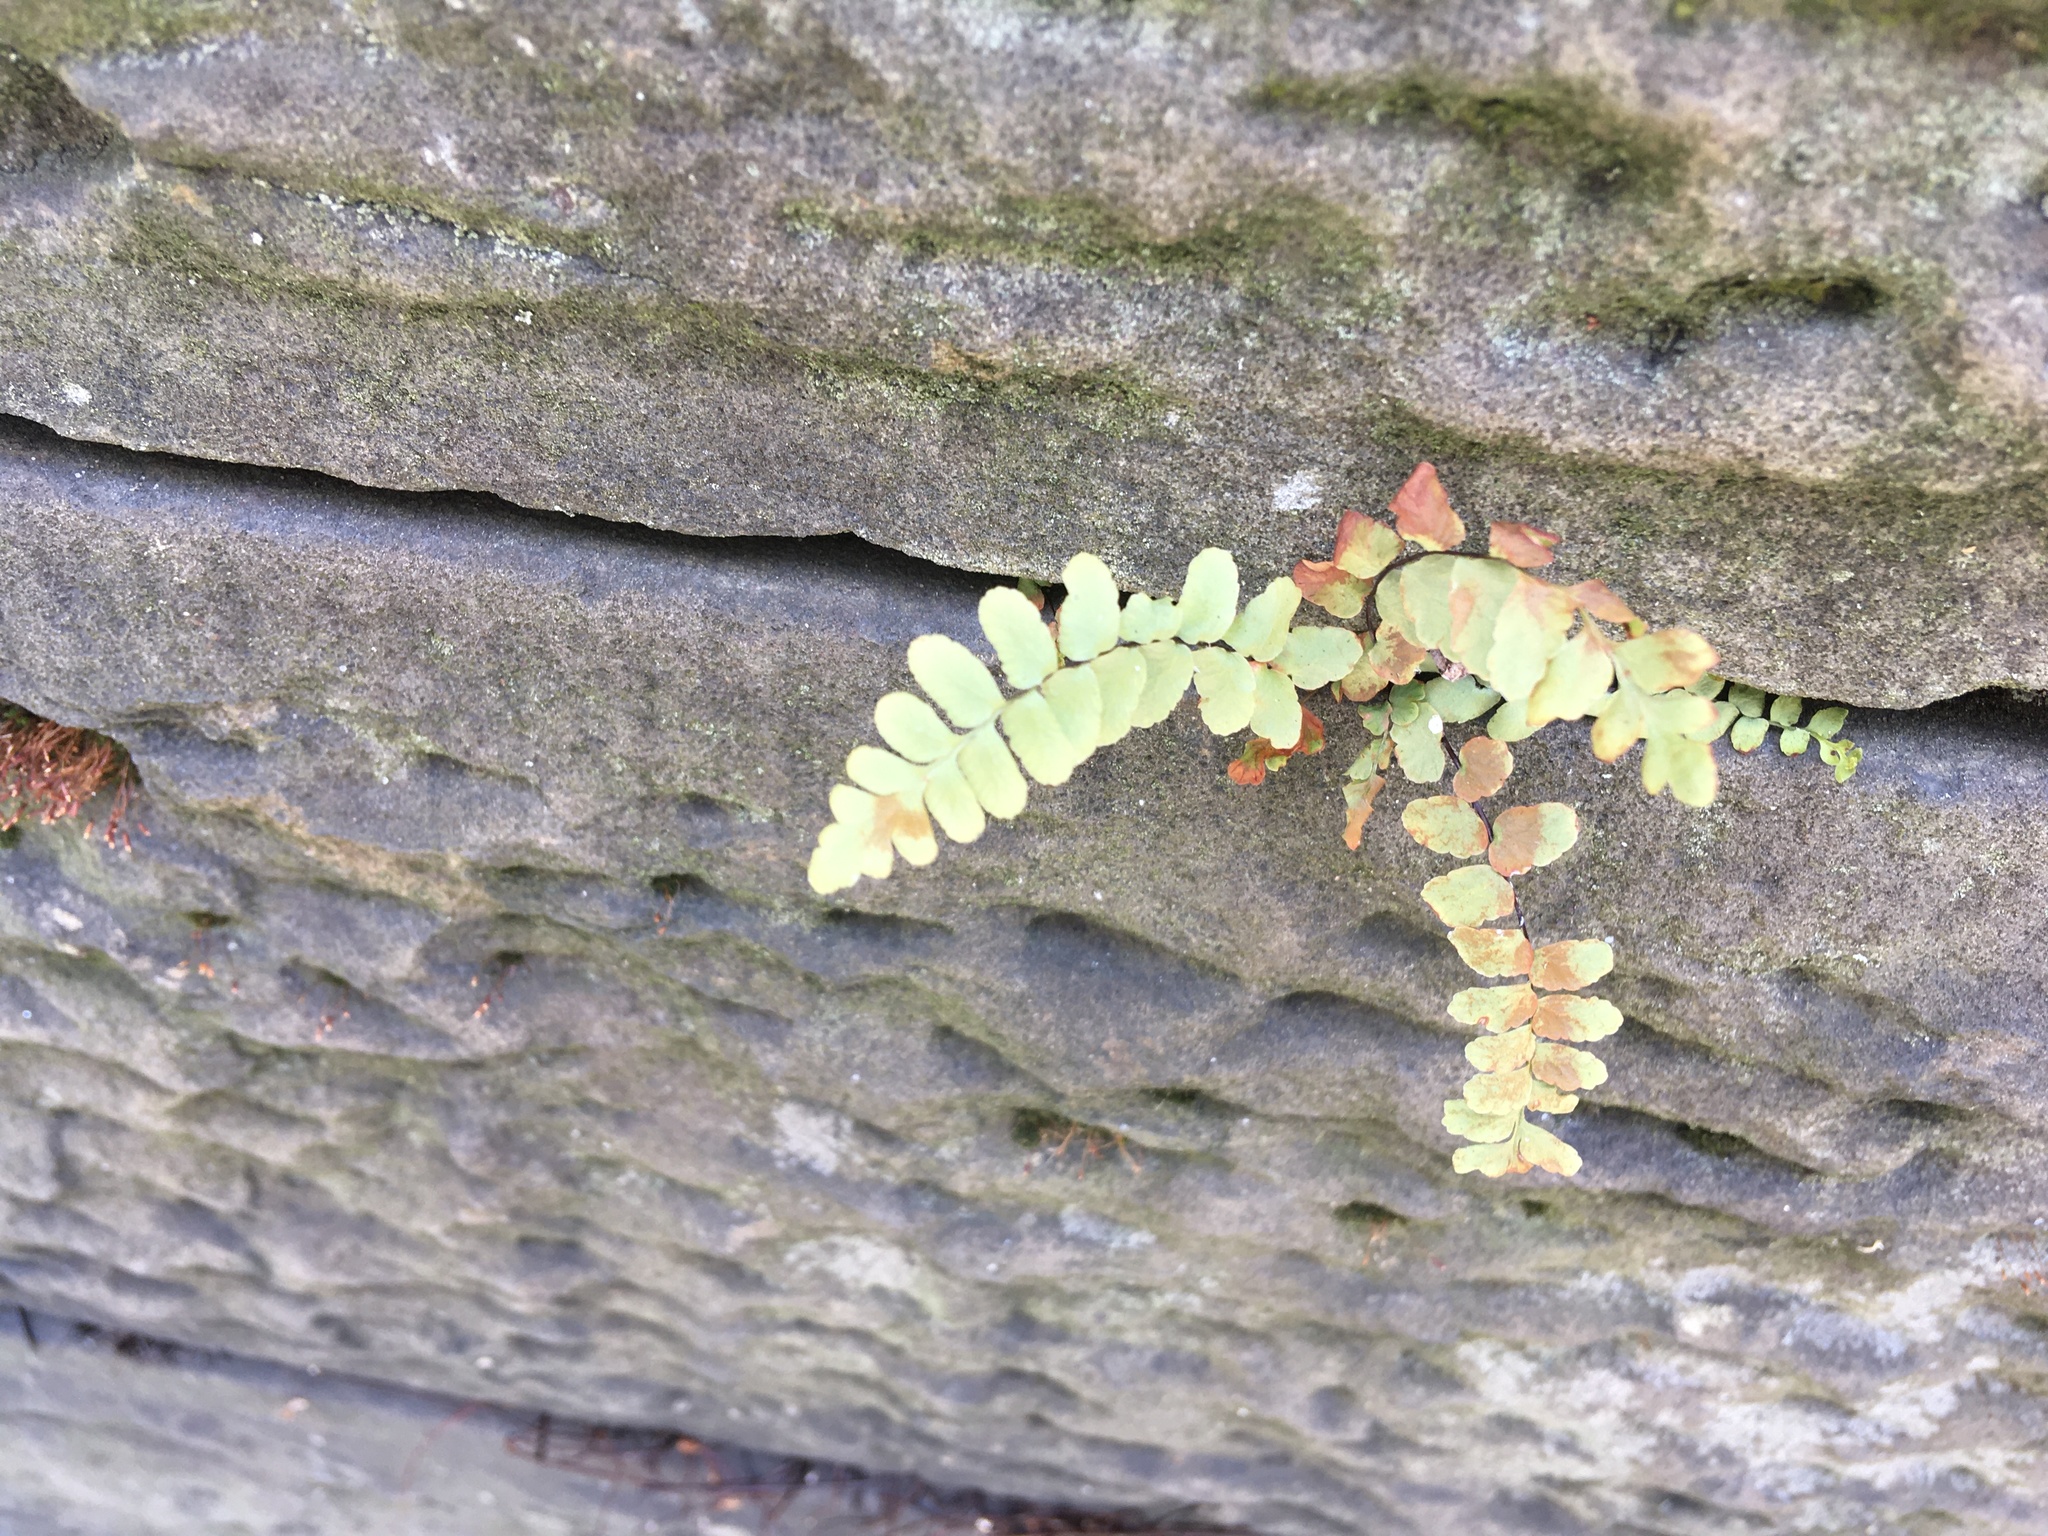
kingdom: Plantae
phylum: Tracheophyta
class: Polypodiopsida
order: Polypodiales
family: Aspleniaceae
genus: Asplenium
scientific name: Asplenium platyneuron
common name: Ebony spleenwort
